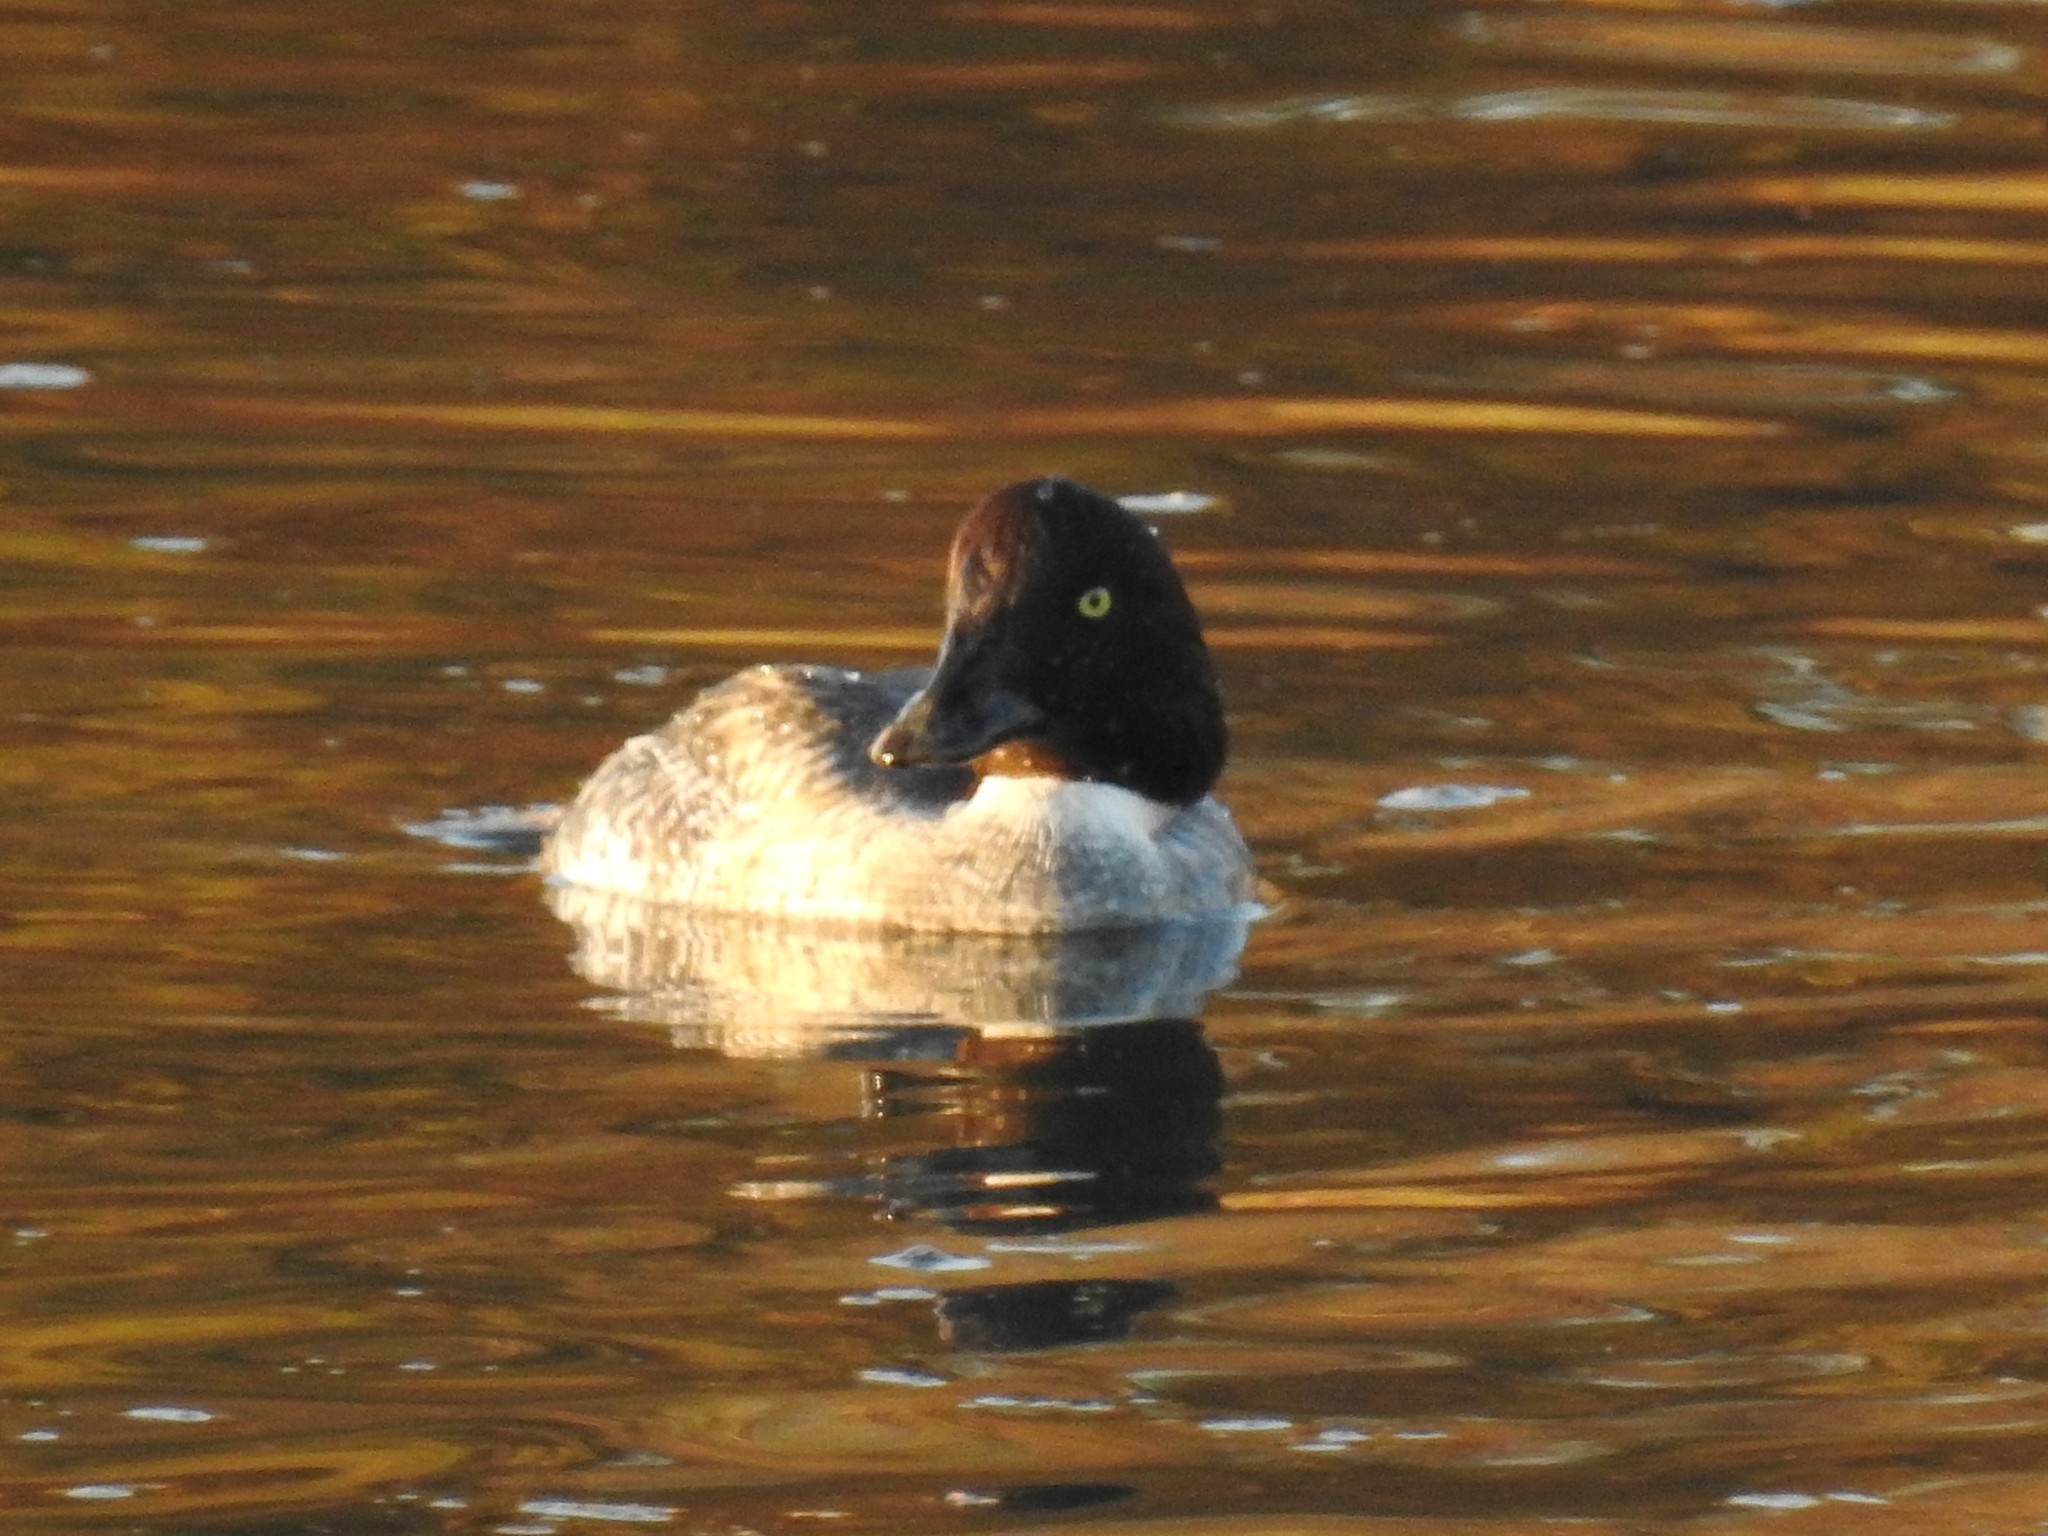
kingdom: Animalia
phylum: Chordata
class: Aves
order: Anseriformes
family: Anatidae
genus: Bucephala
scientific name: Bucephala clangula
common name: Common goldeneye
